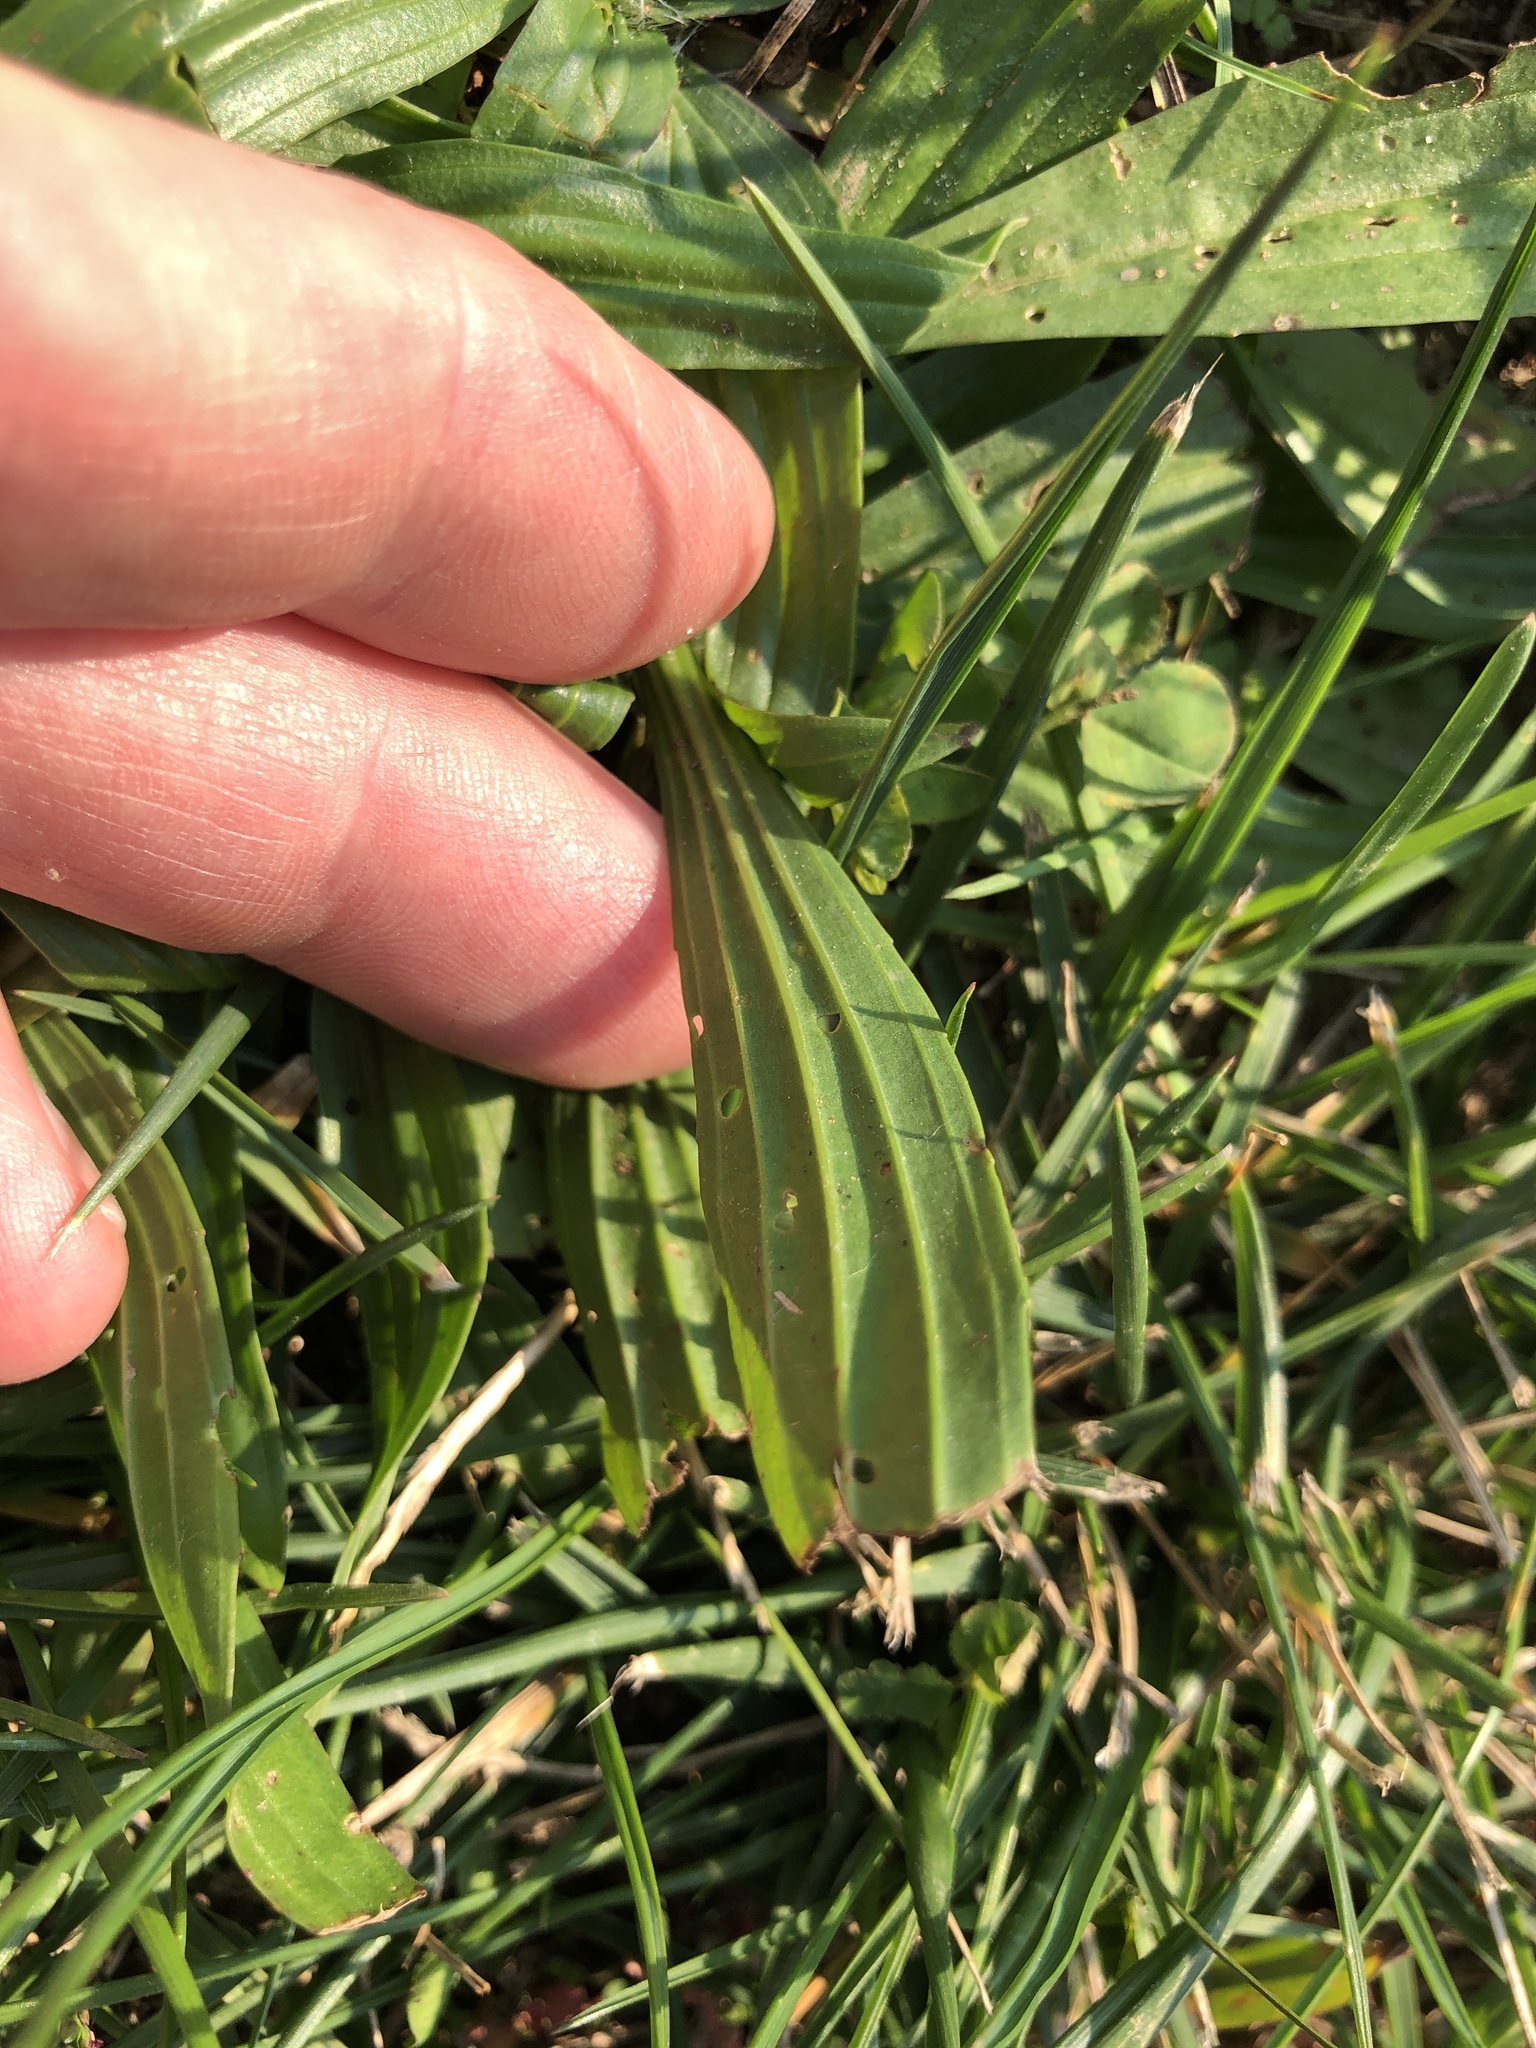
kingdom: Plantae
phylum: Tracheophyta
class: Magnoliopsida
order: Lamiales
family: Plantaginaceae
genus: Plantago
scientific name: Plantago lanceolata
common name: Ribwort plantain
